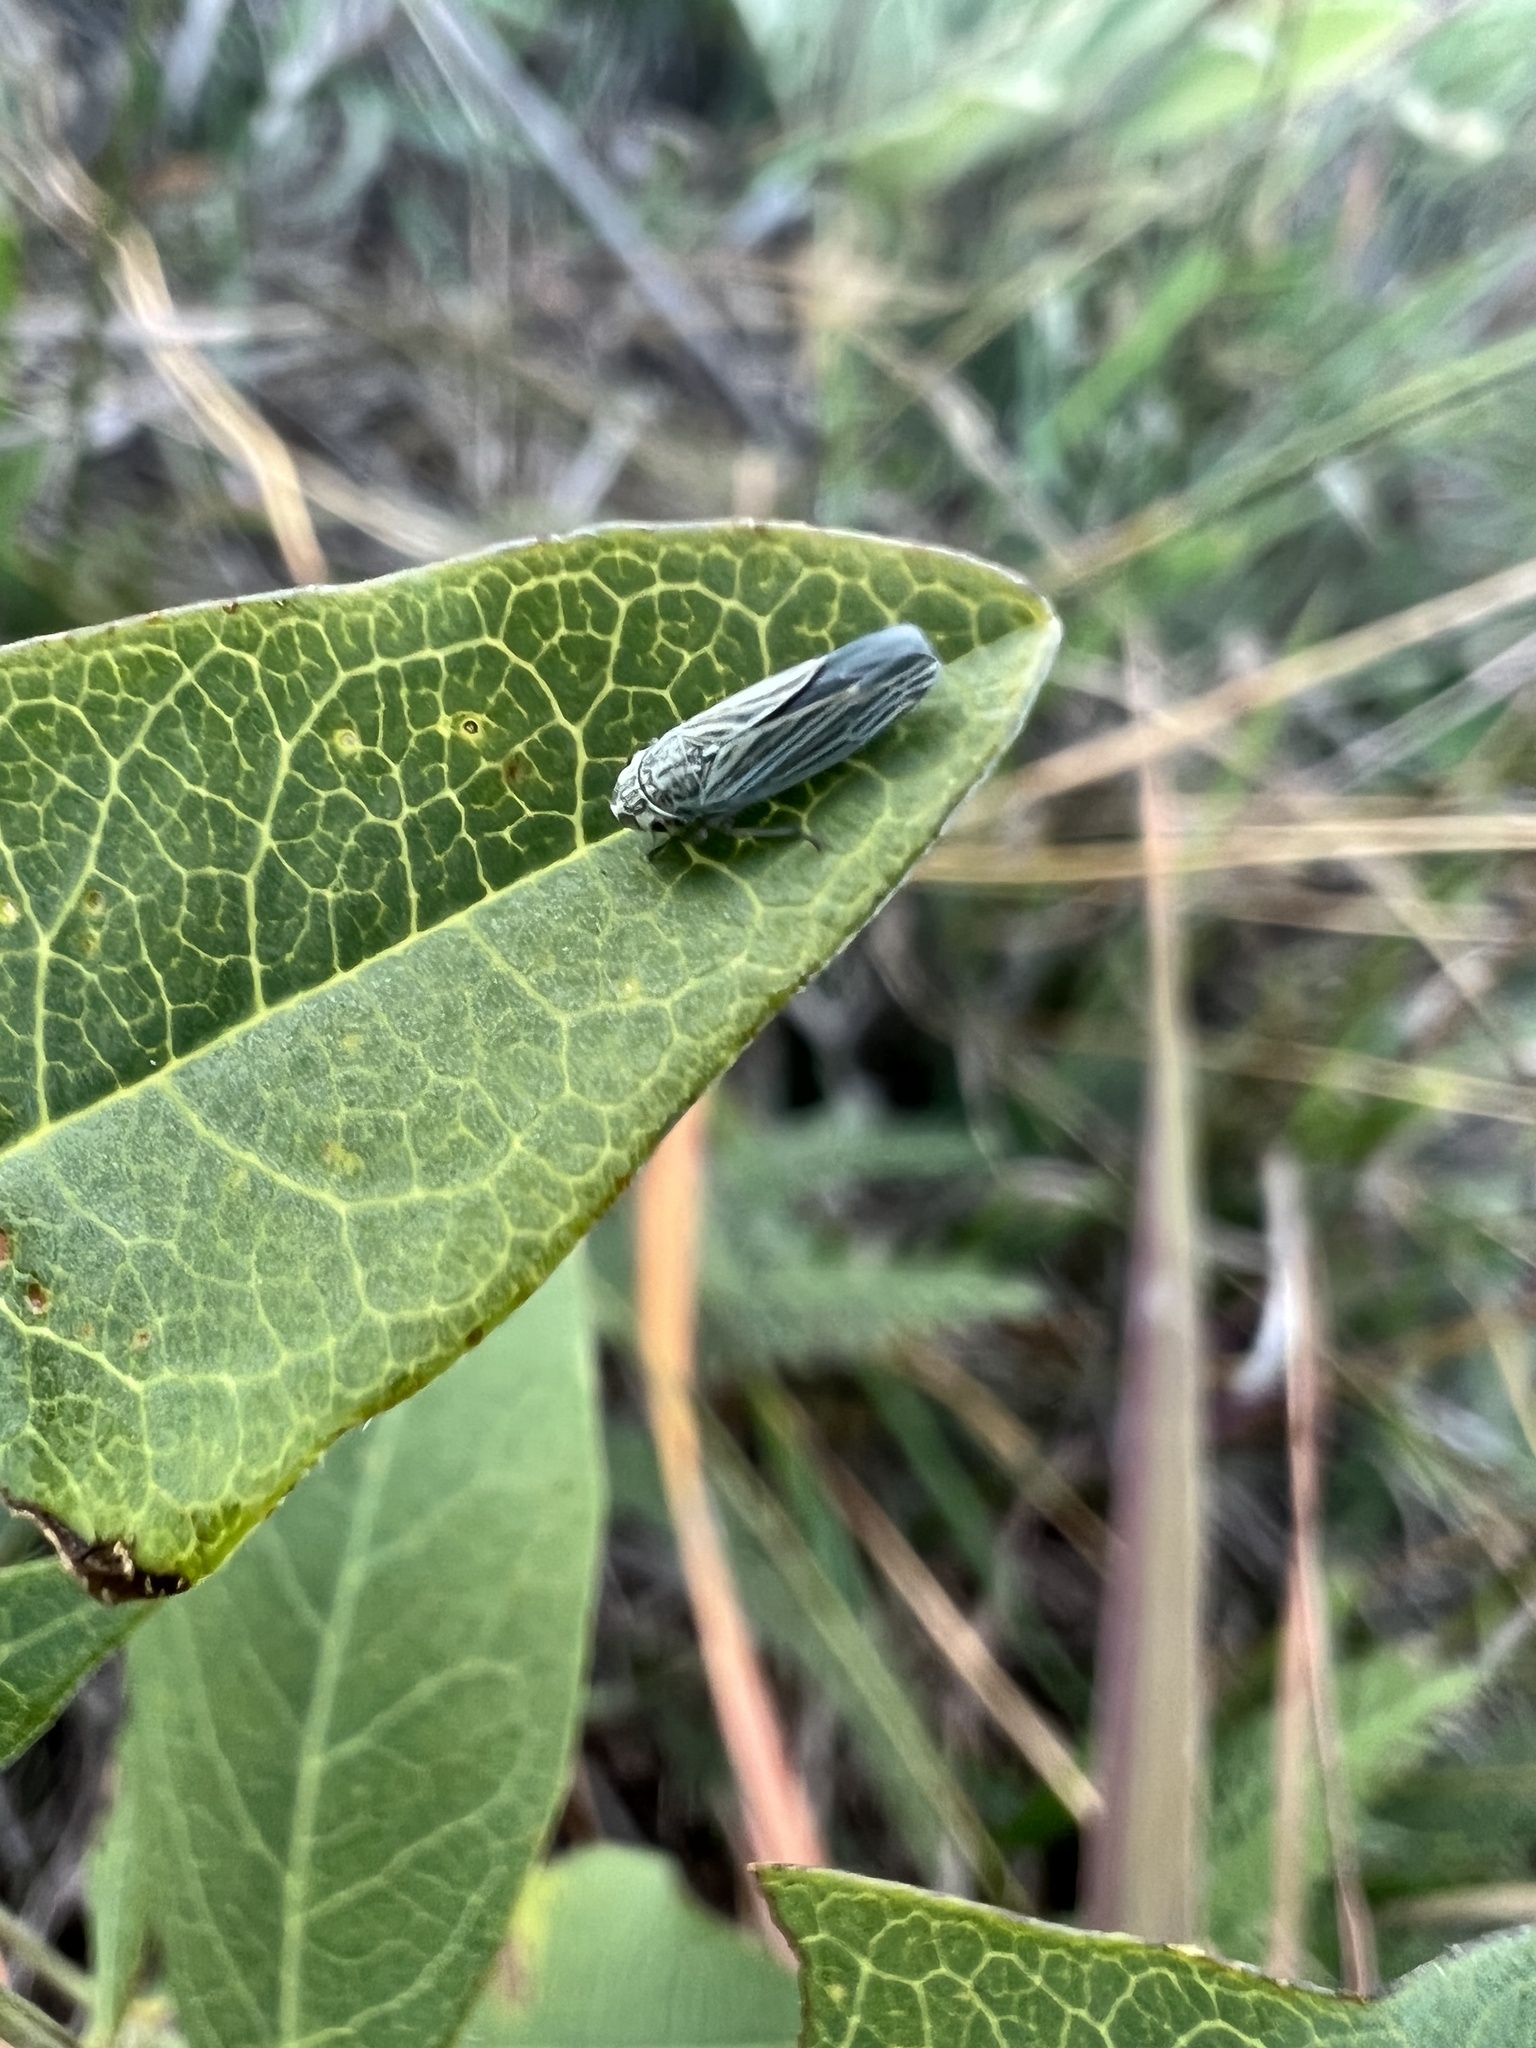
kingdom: Animalia
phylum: Arthropoda
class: Insecta
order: Hemiptera
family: Cicadellidae
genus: Neokolla
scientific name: Neokolla hieroglyphica
